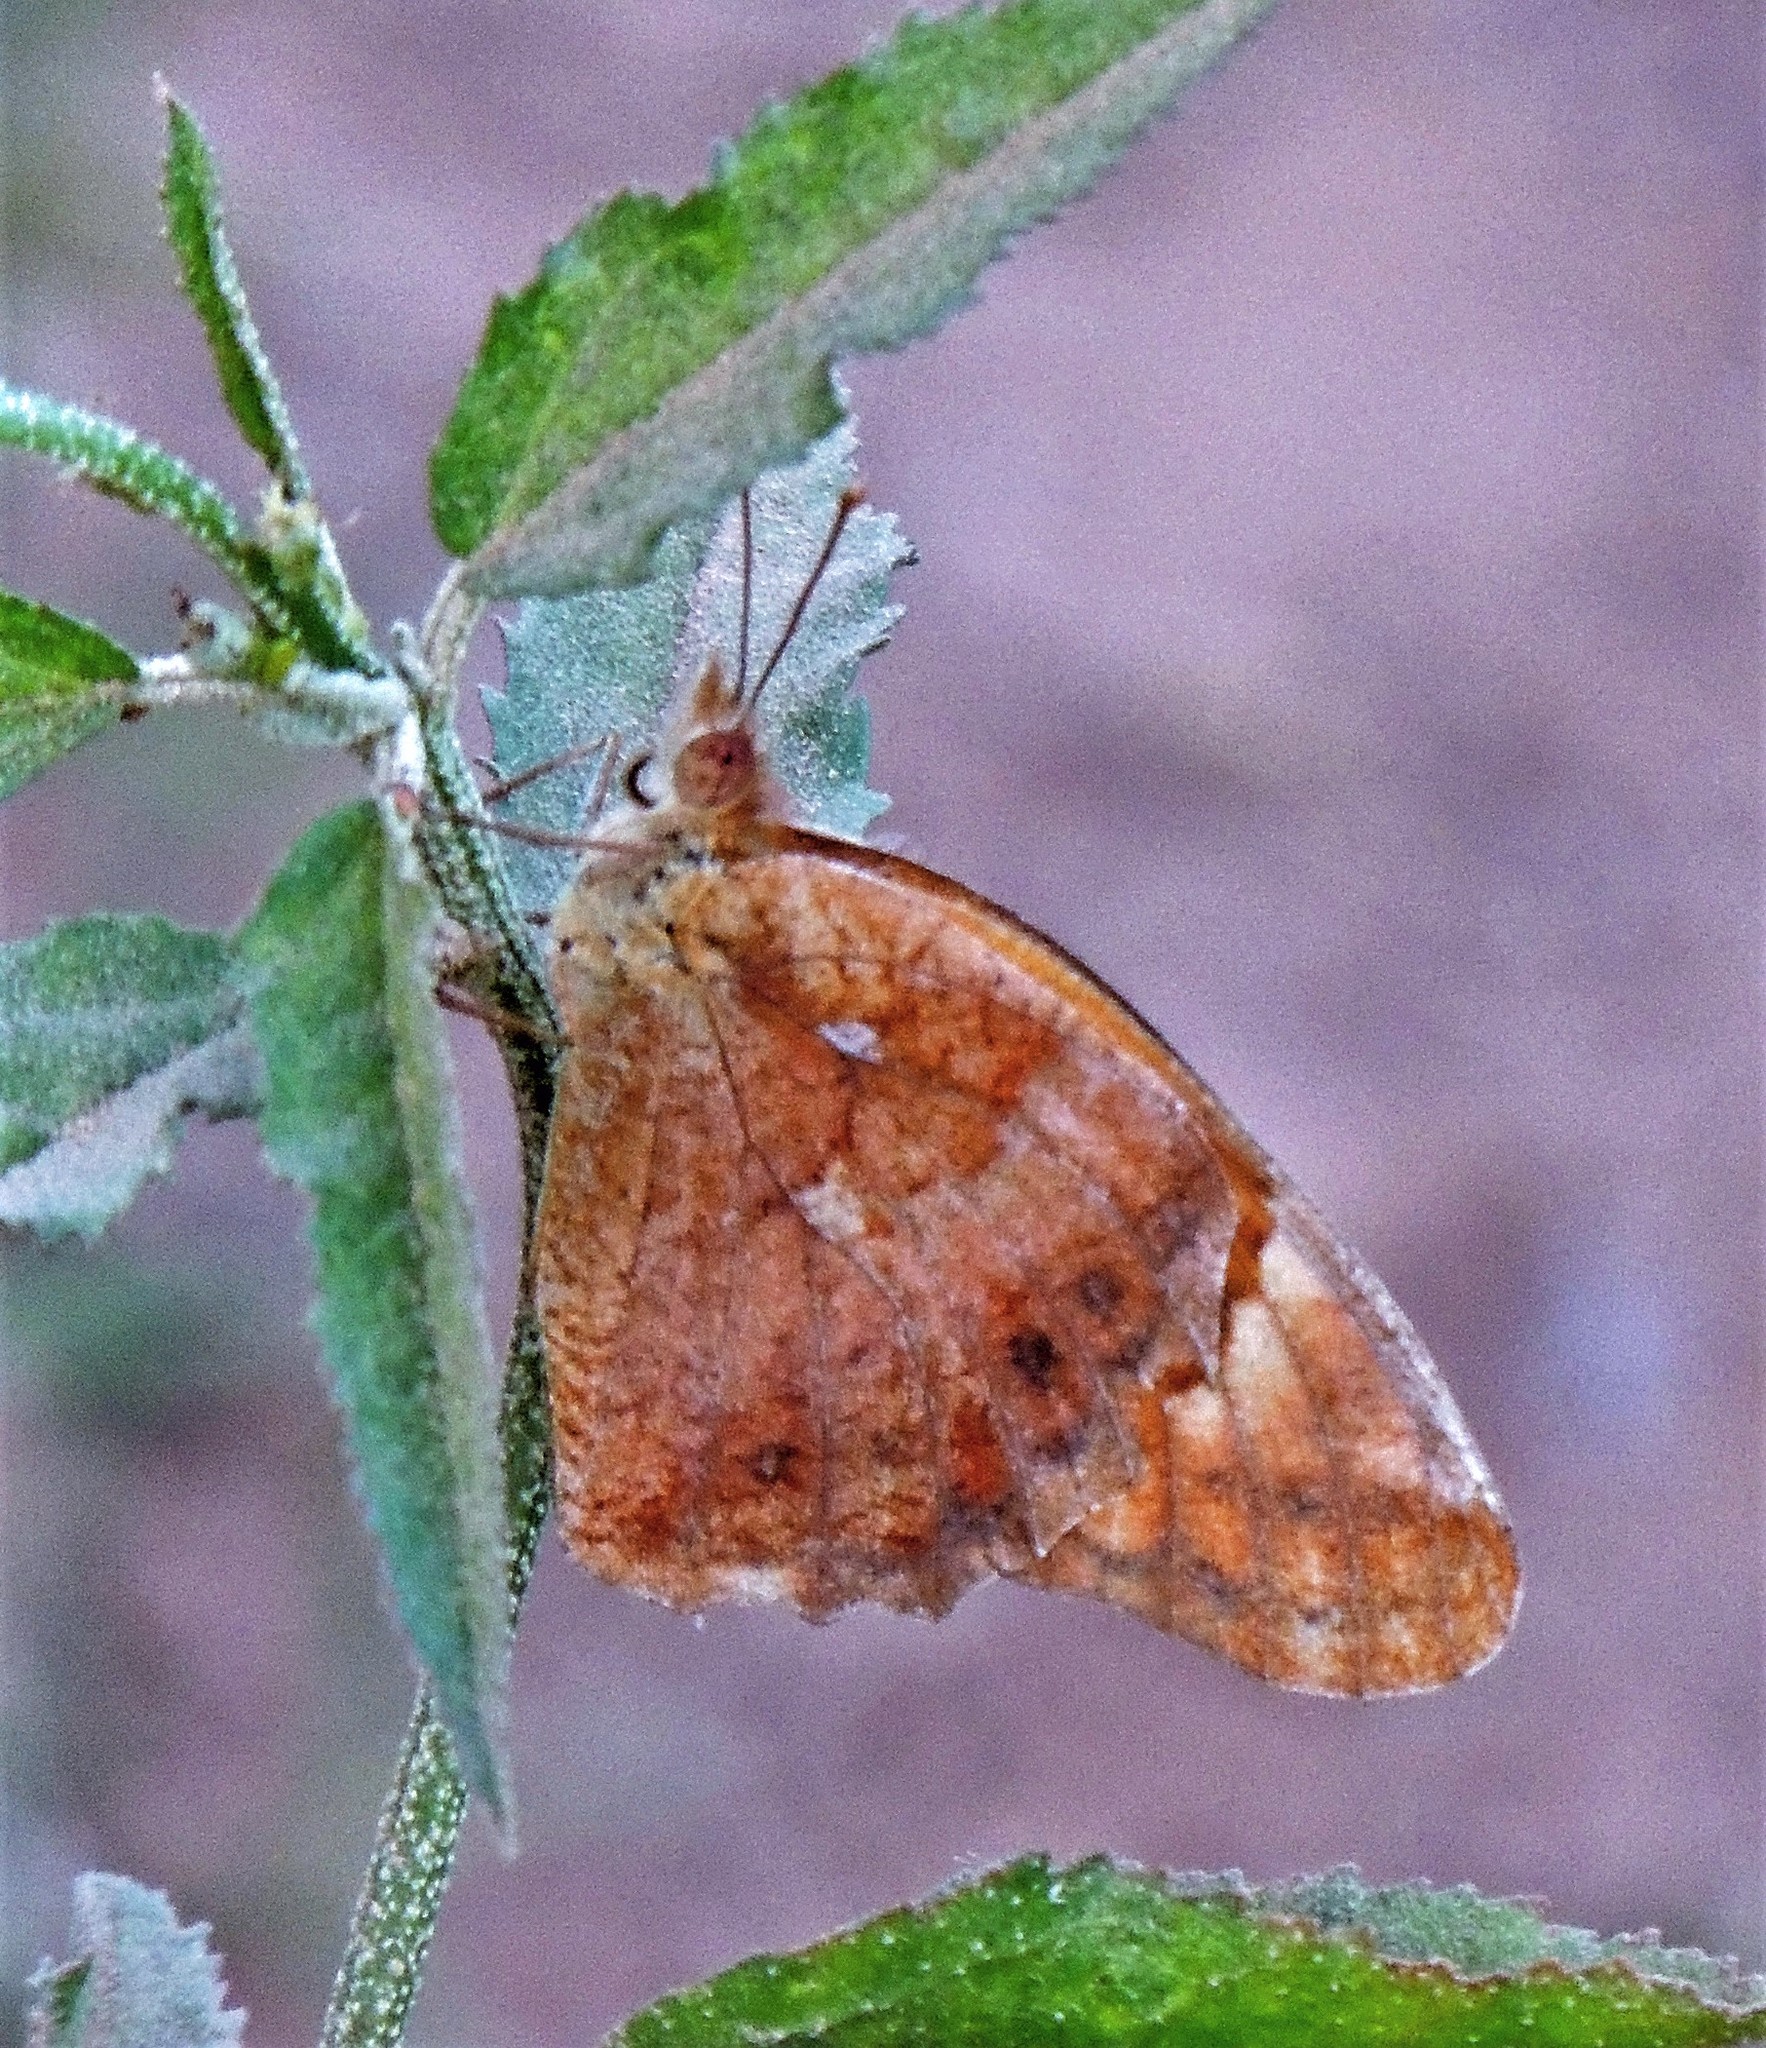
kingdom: Animalia
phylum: Arthropoda
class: Insecta
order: Lepidoptera
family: Nymphalidae
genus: Euptoieta
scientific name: Euptoieta hegesia
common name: Mexican fritillary
